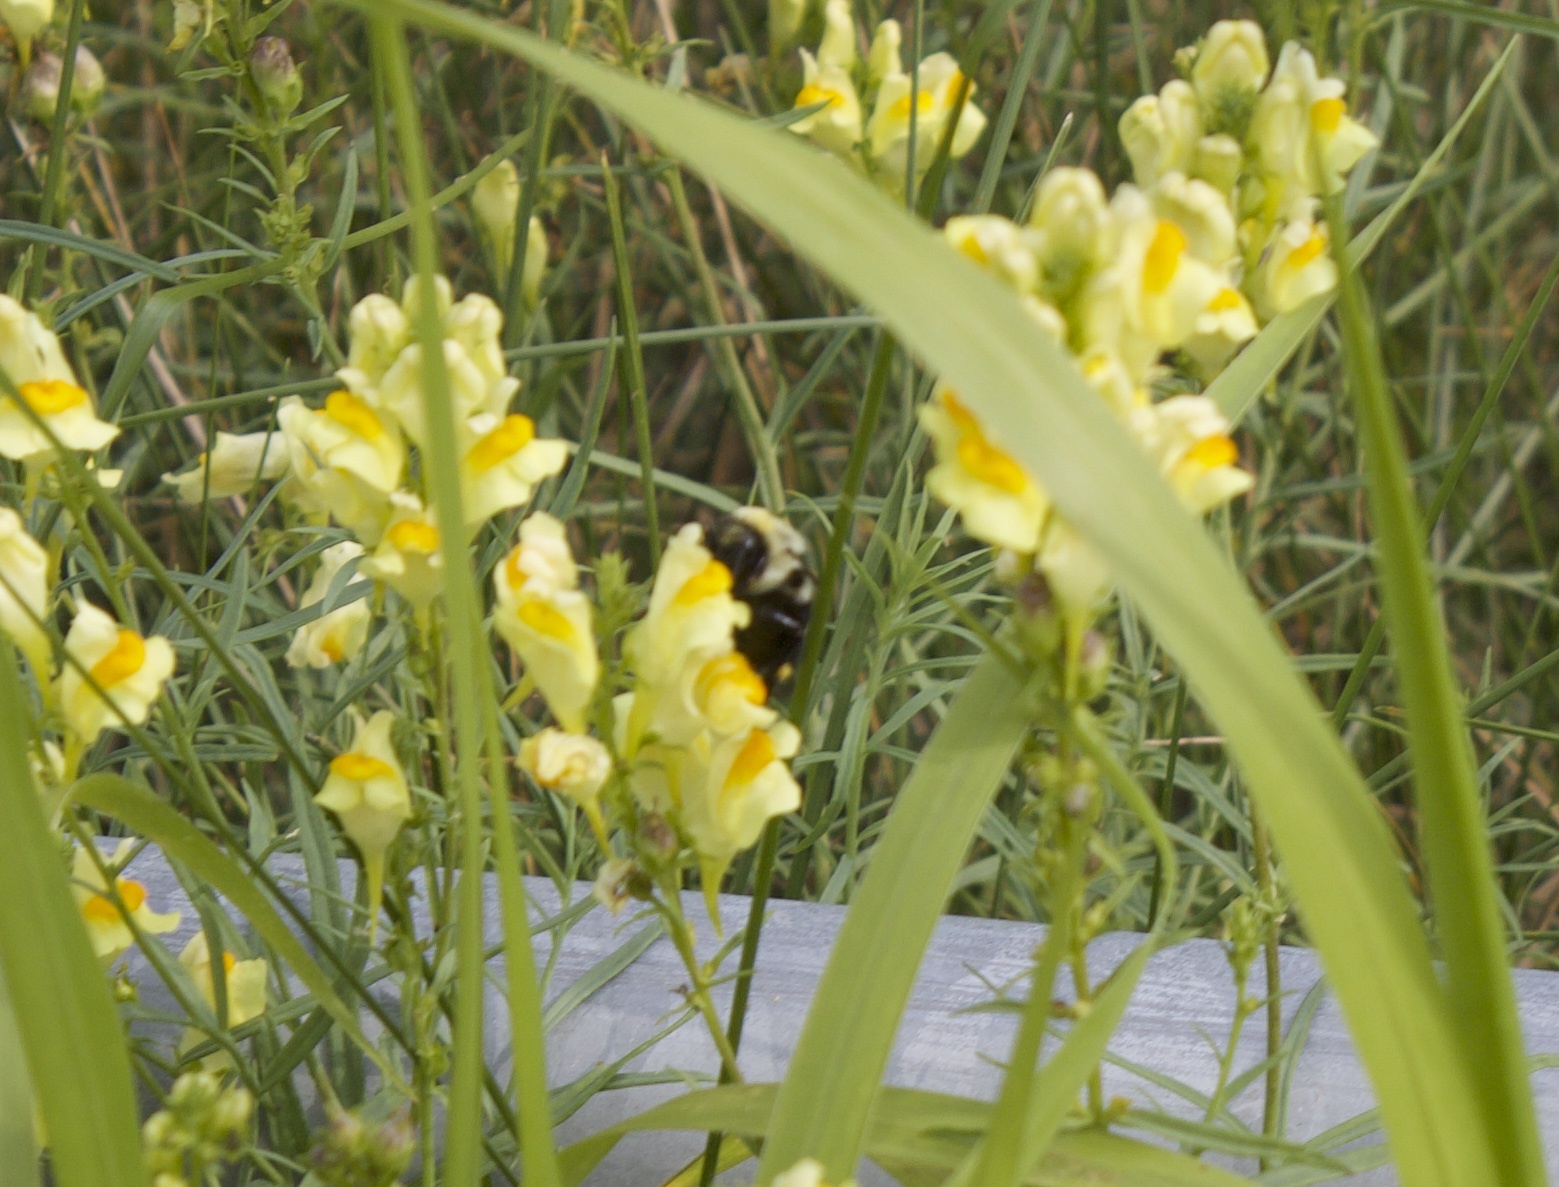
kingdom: Animalia
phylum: Arthropoda
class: Insecta
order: Hymenoptera
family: Apidae
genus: Bombus
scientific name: Bombus impatiens
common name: Common eastern bumble bee
